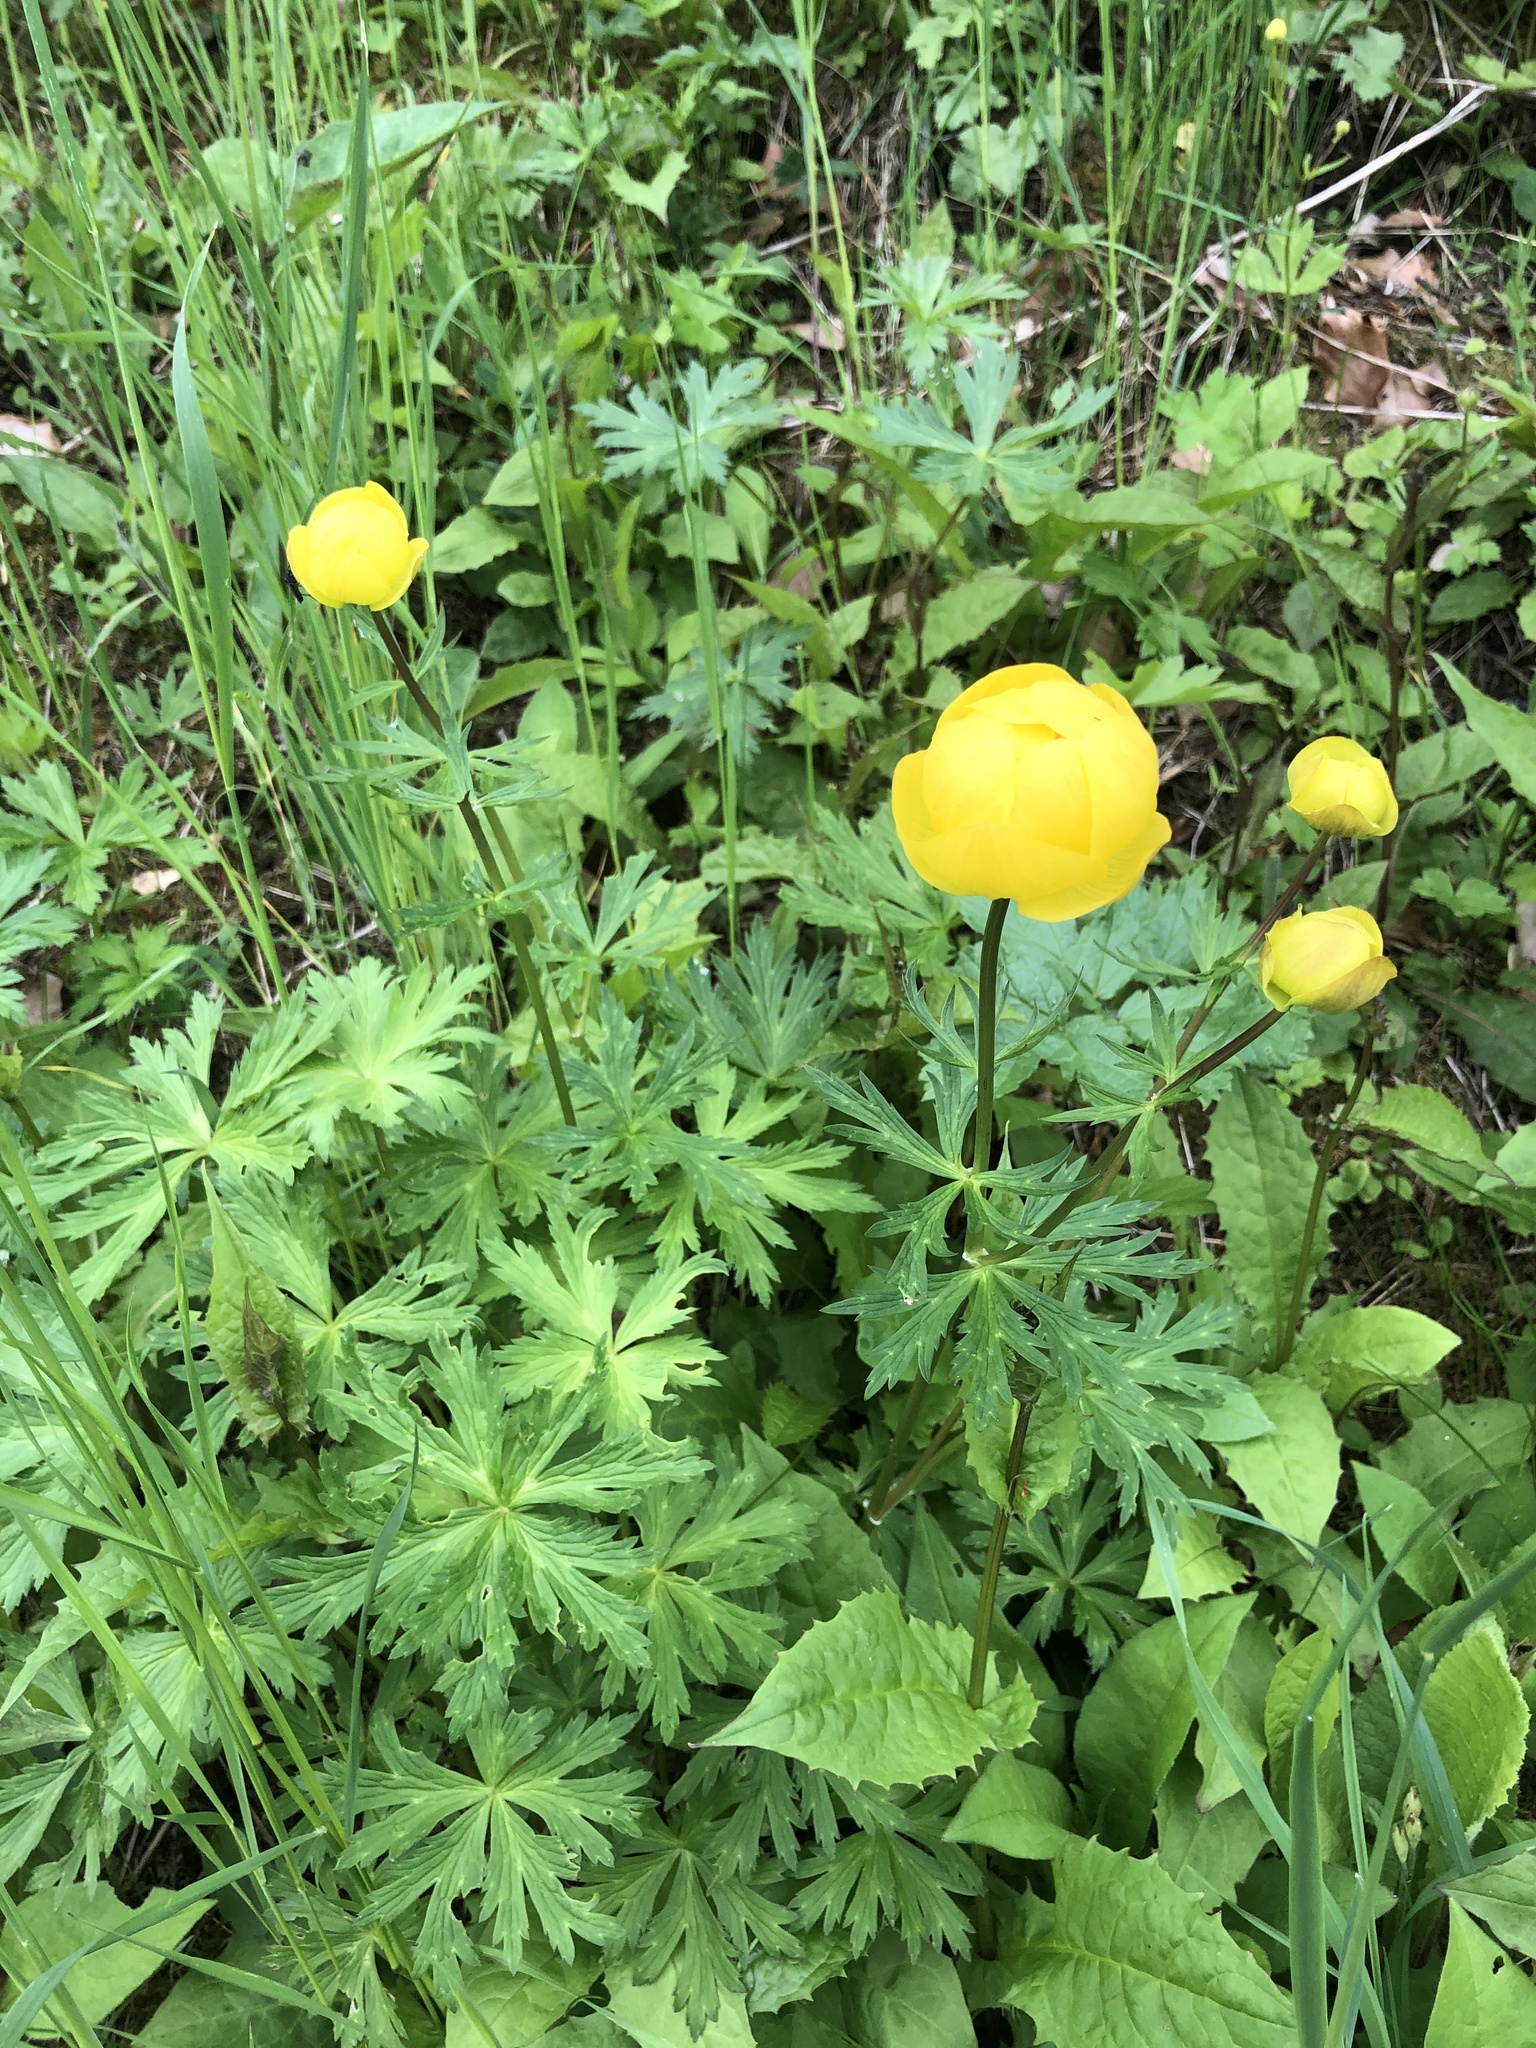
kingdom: Plantae
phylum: Tracheophyta
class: Magnoliopsida
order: Ranunculales
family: Ranunculaceae
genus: Trollius
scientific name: Trollius europaeus
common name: European globeflower
